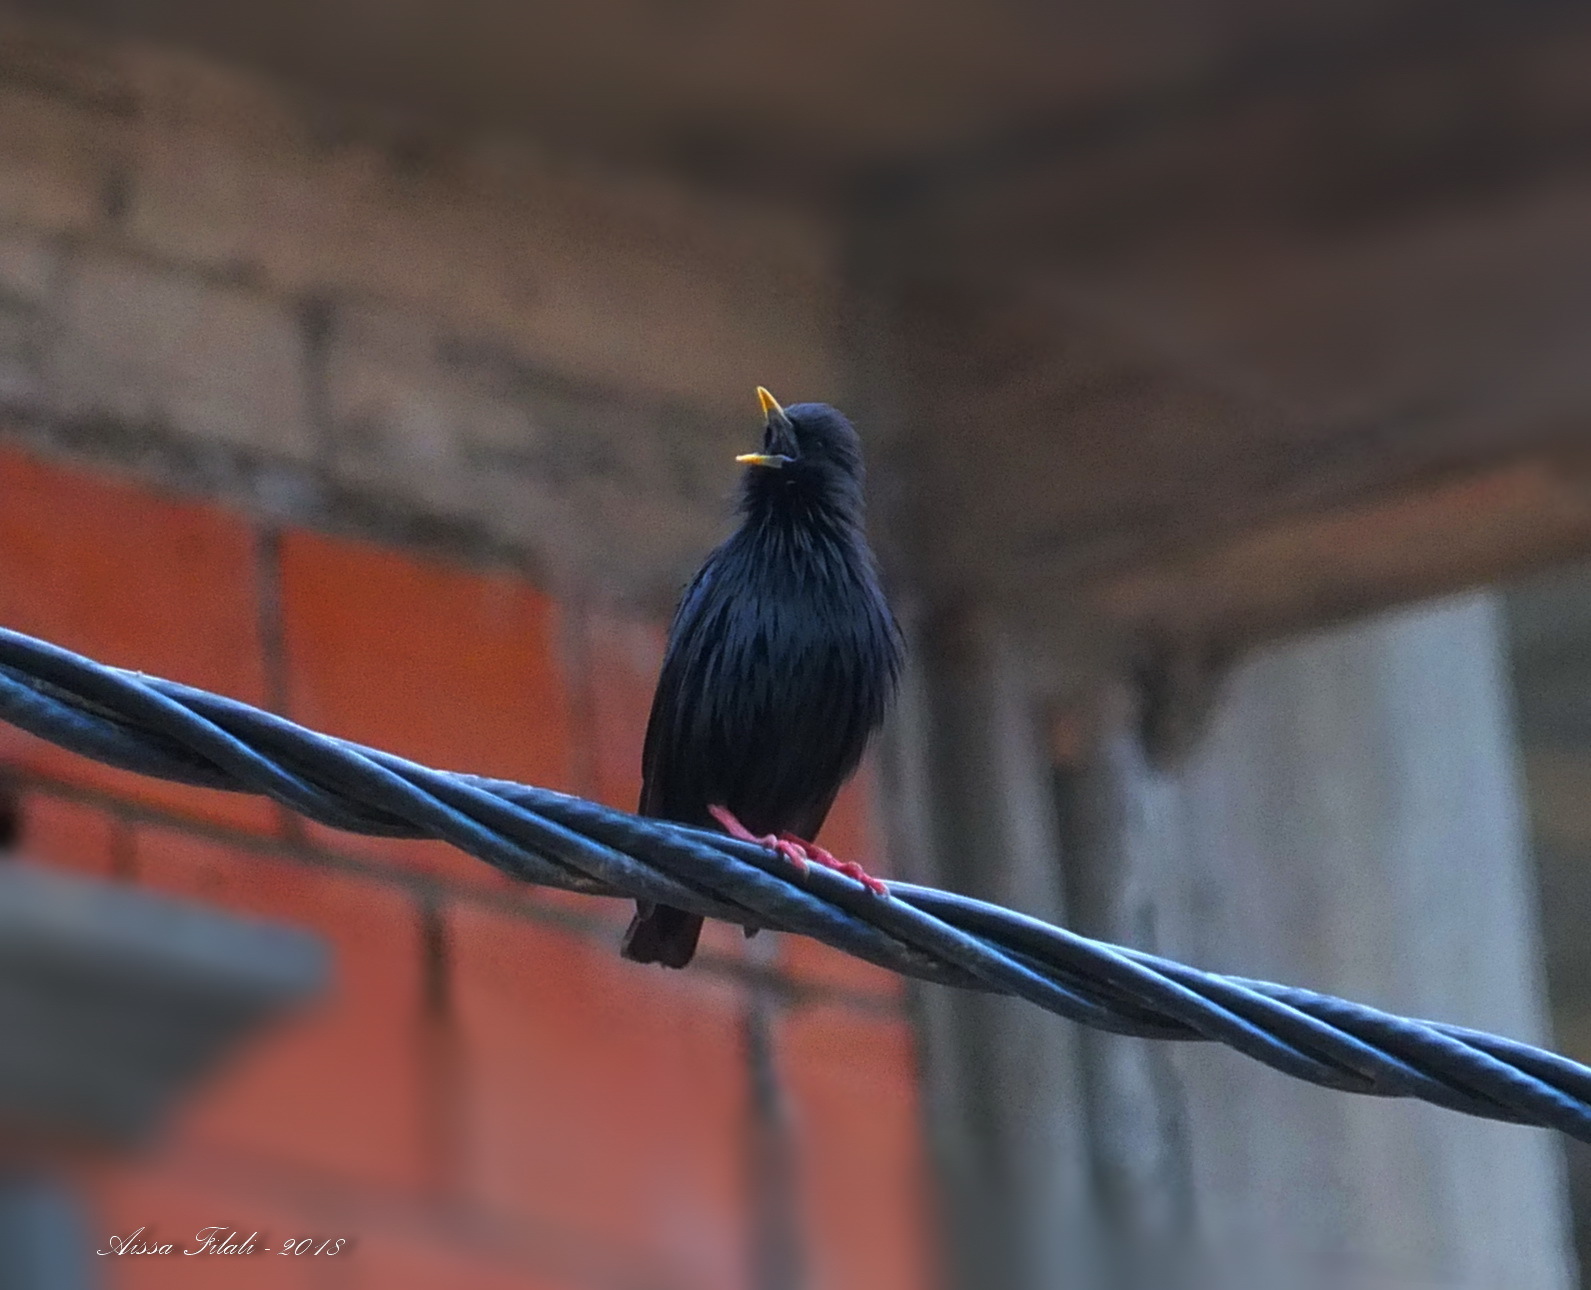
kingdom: Animalia
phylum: Chordata
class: Aves
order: Passeriformes
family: Sturnidae
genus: Sturnus
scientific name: Sturnus unicolor
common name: Spotless starling
